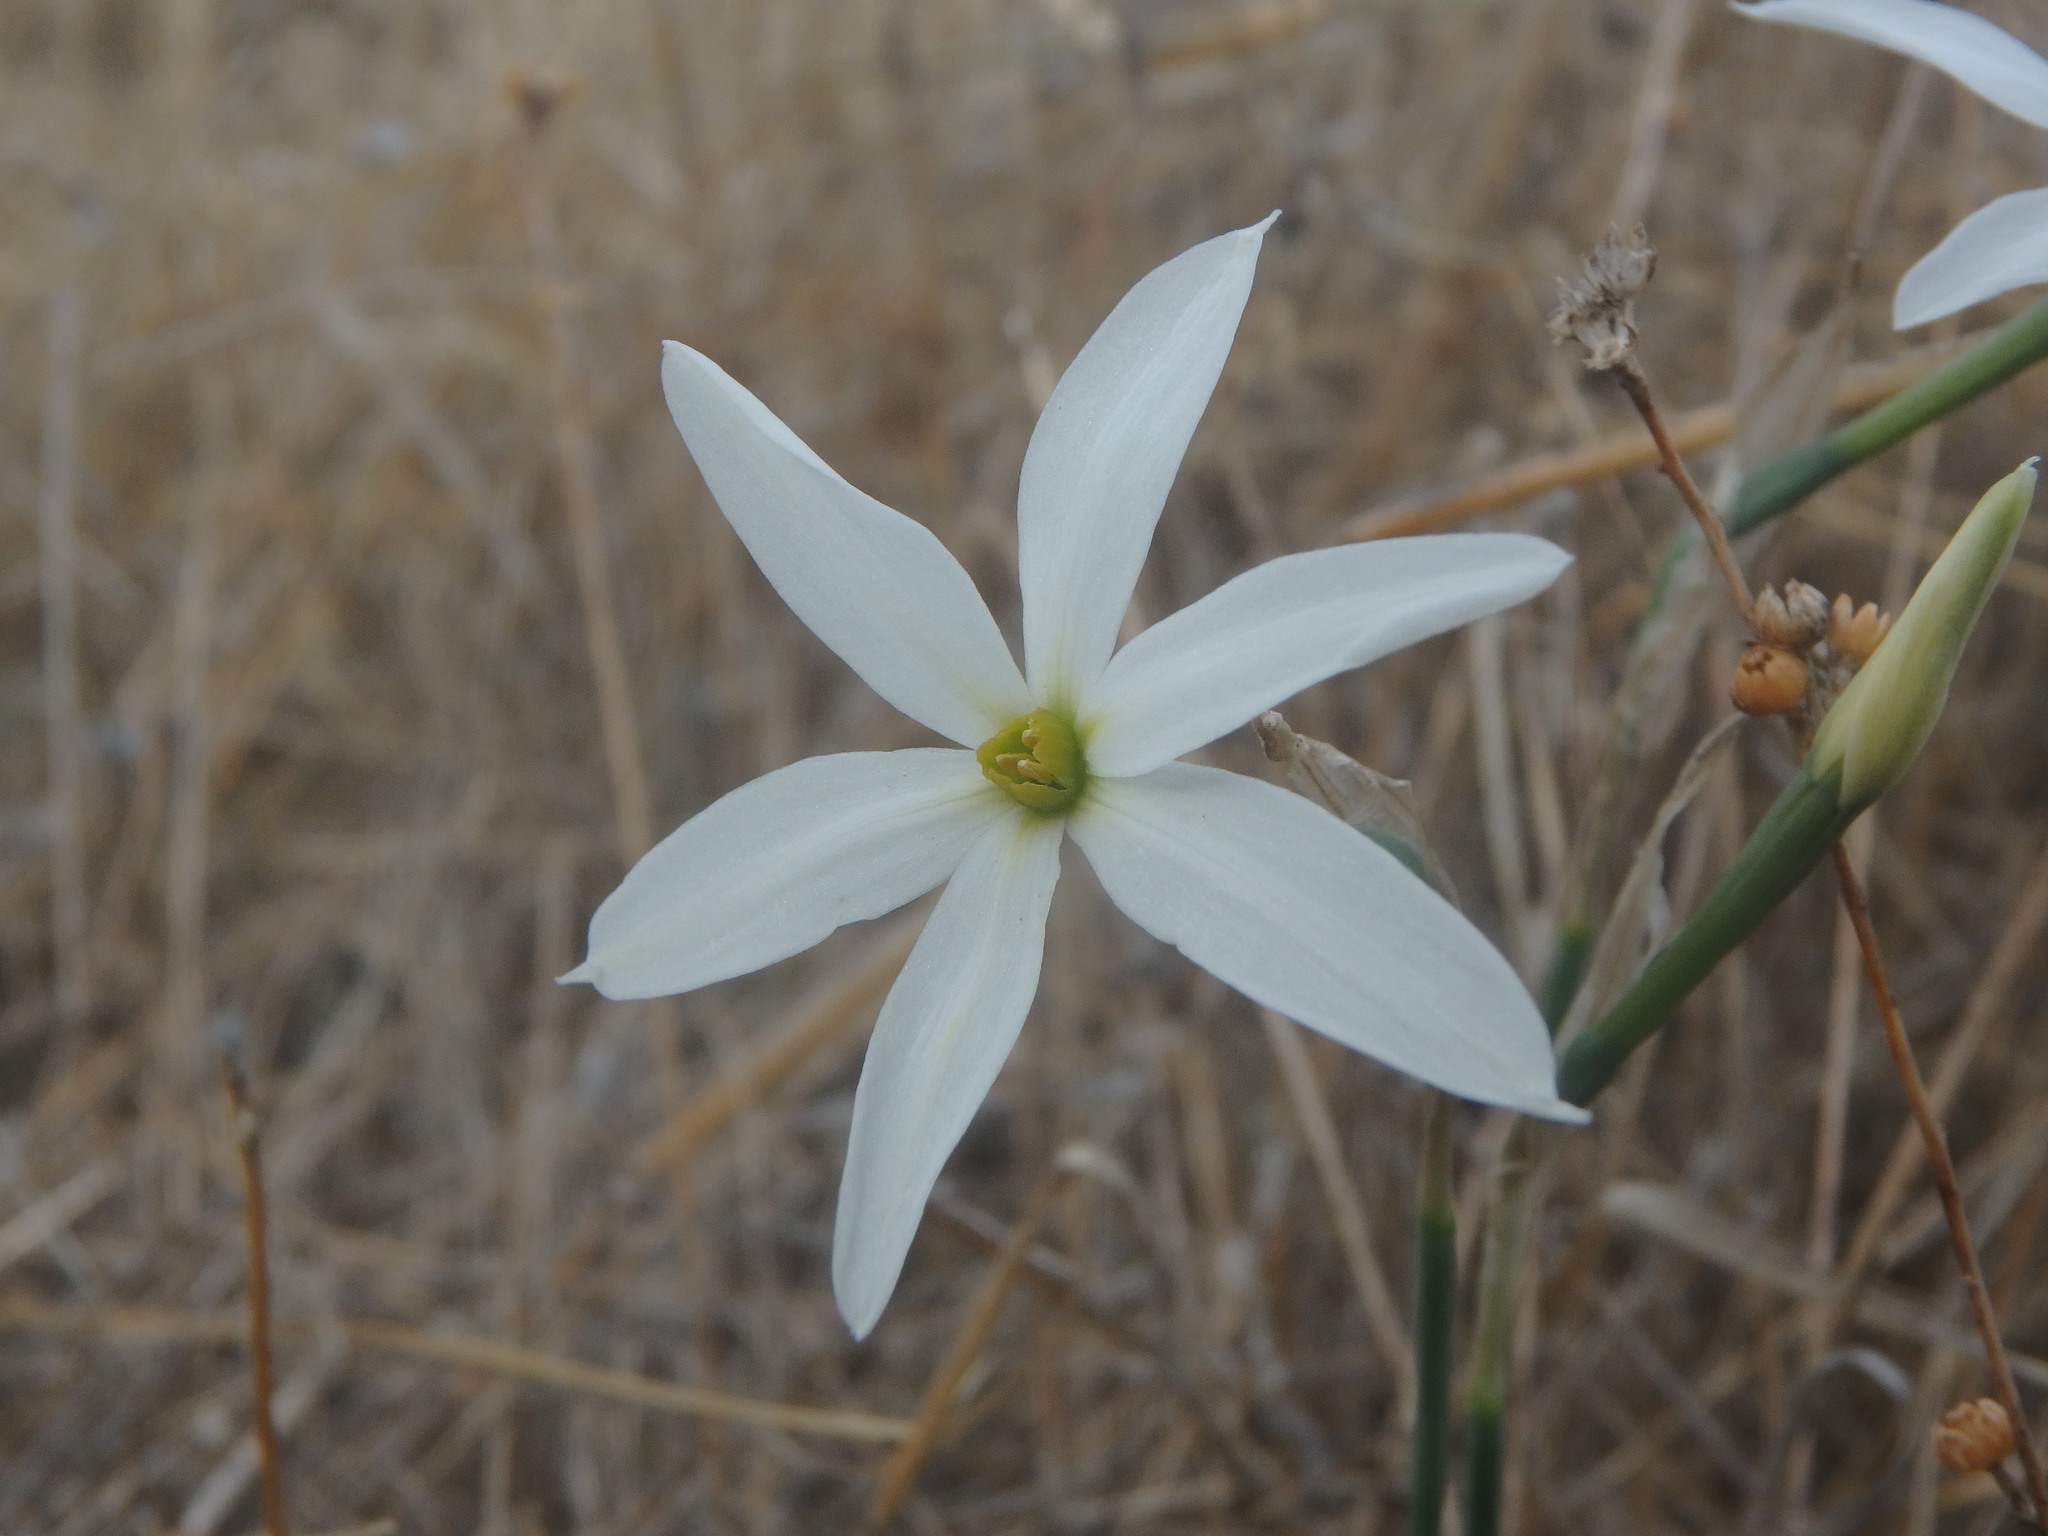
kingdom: Plantae
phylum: Tracheophyta
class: Liliopsida
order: Asparagales
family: Amaryllidaceae
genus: Narcissus
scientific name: Narcissus deficiens
